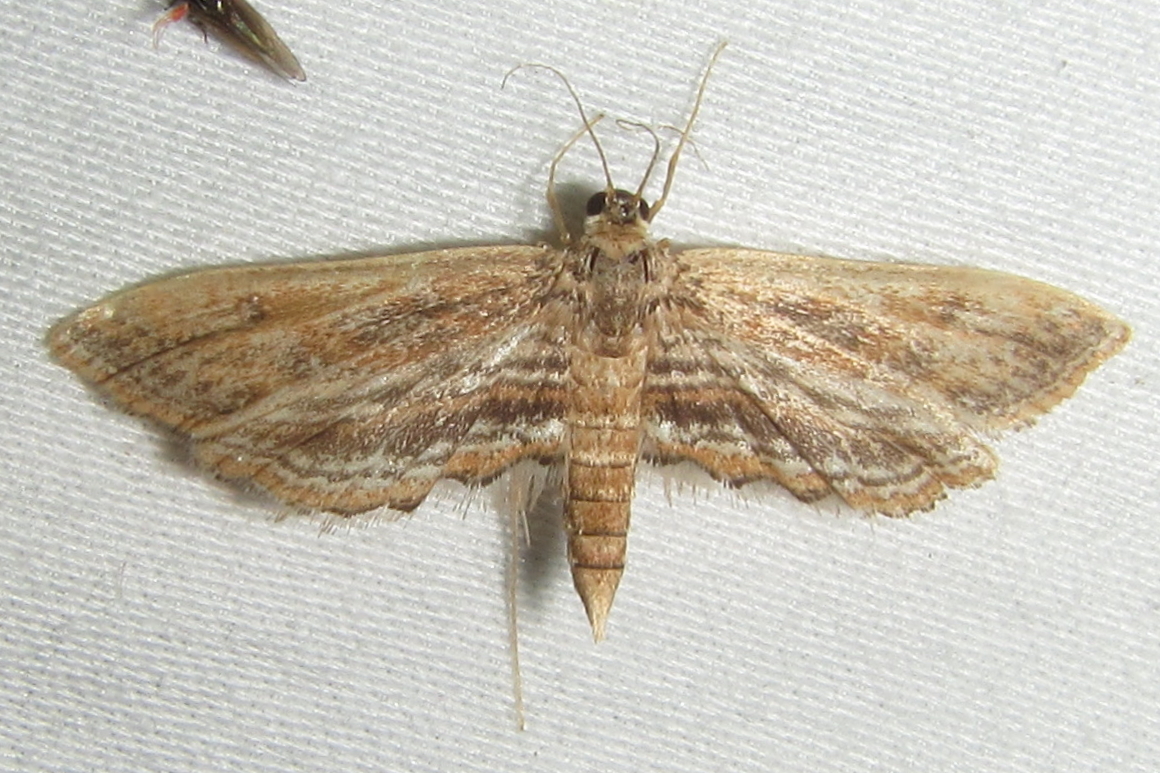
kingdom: Animalia
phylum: Arthropoda
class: Insecta
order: Lepidoptera
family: Crambidae
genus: Parapoynx
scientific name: Parapoynx fluctuosalis
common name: Moth
